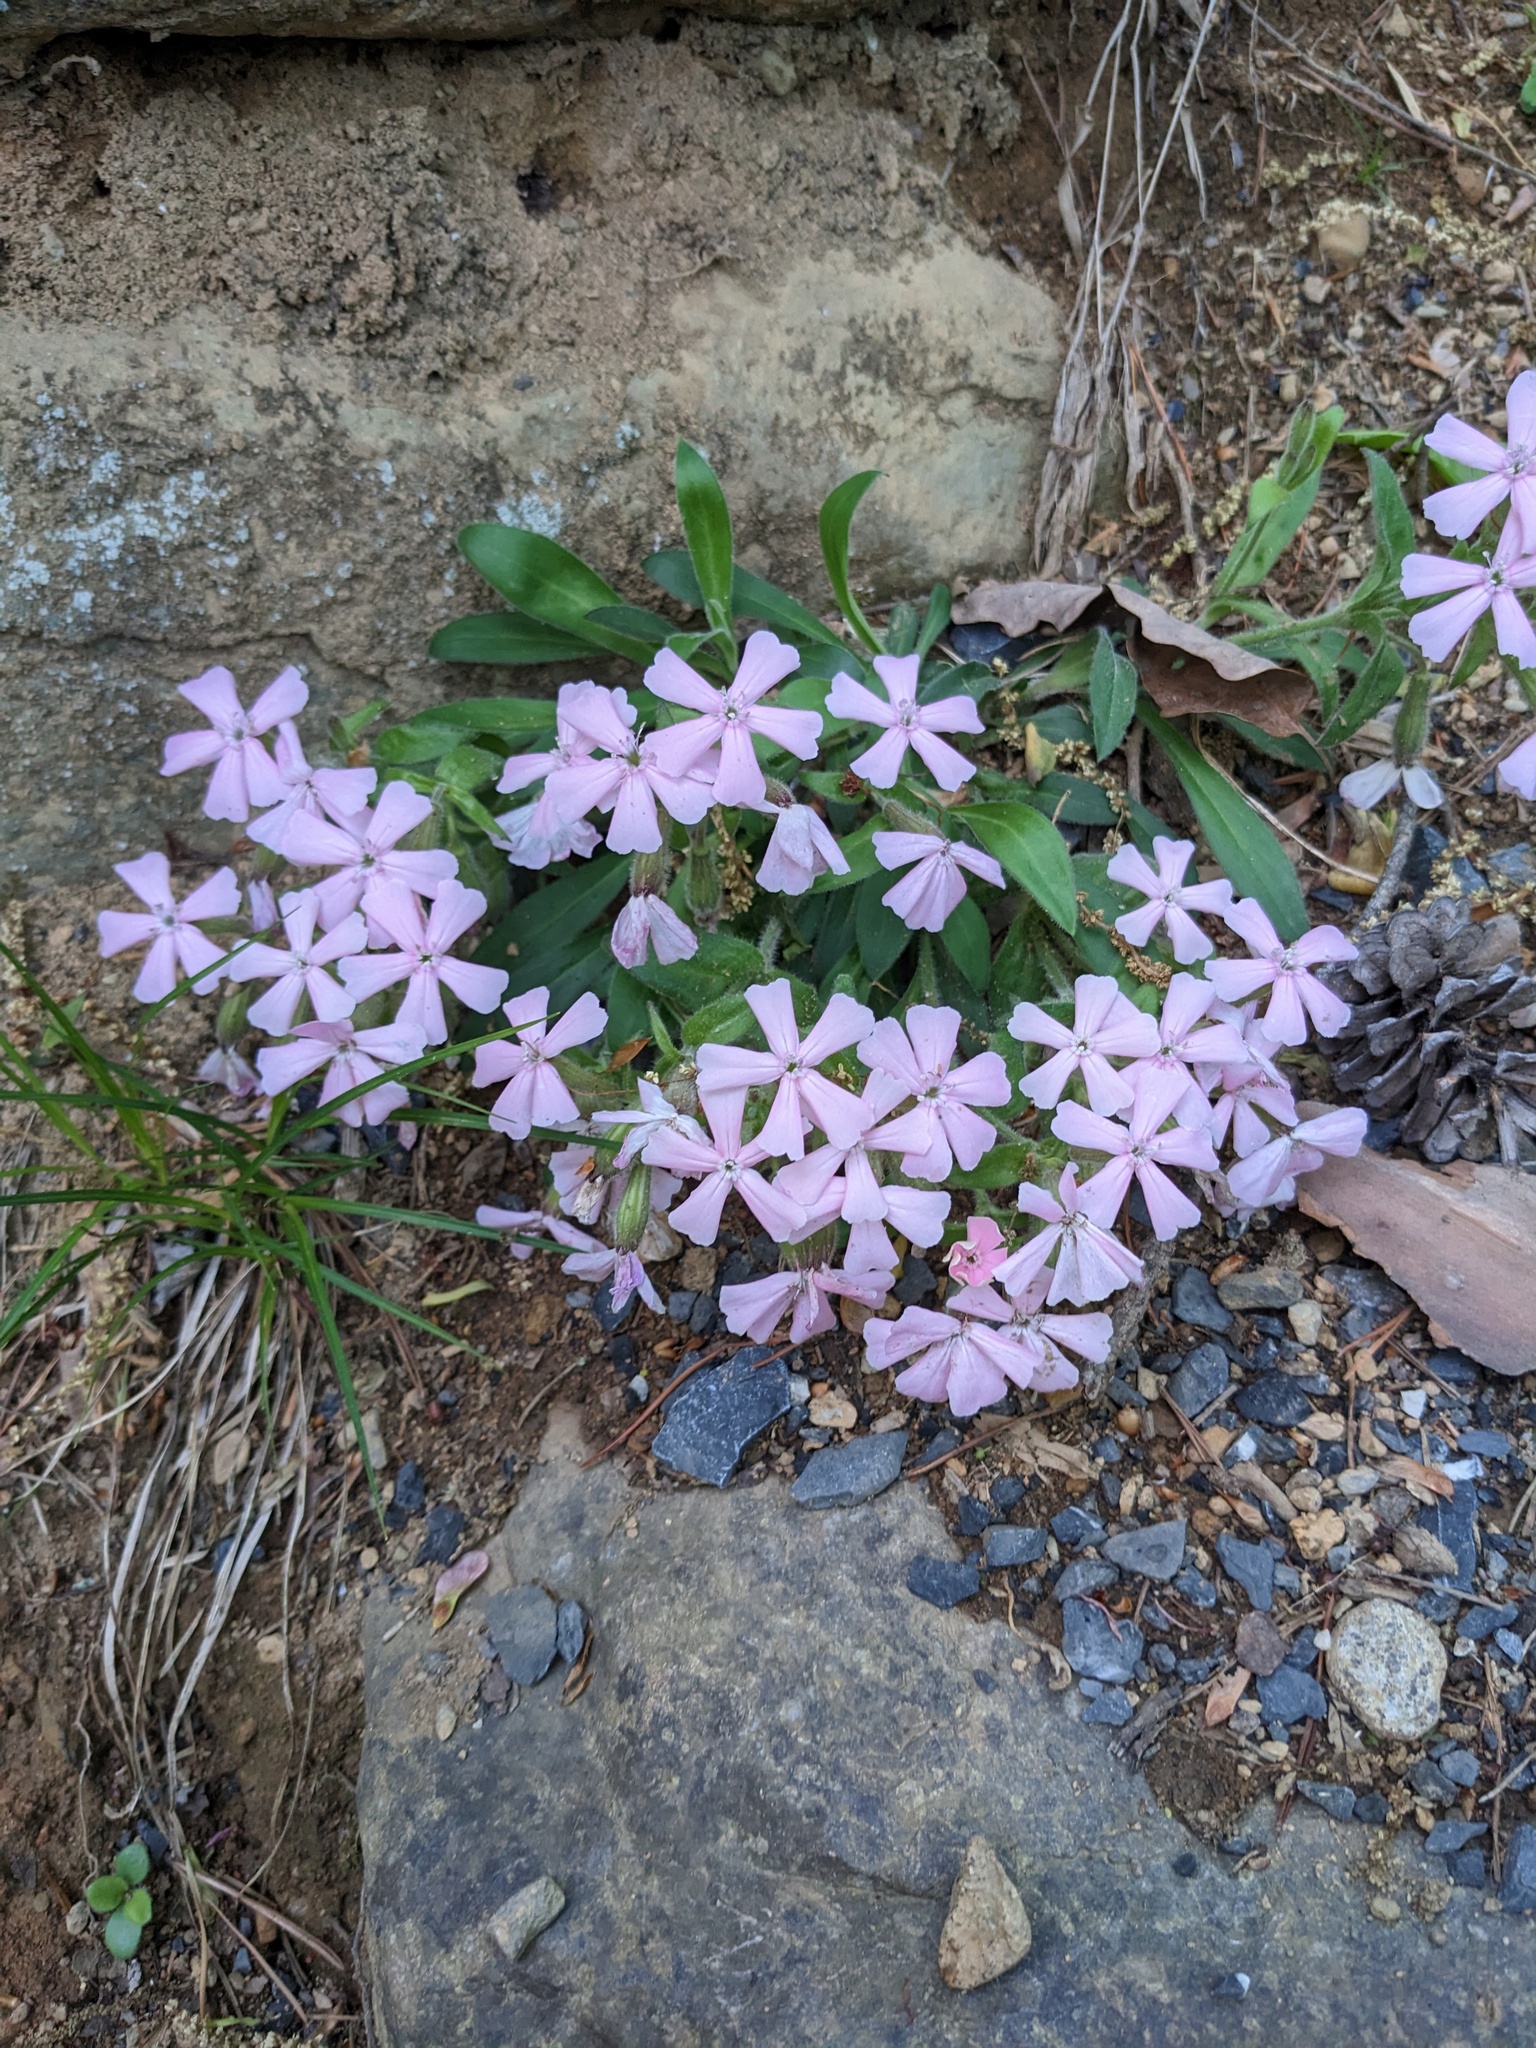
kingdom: Plantae
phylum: Tracheophyta
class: Magnoliopsida
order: Caryophyllales
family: Caryophyllaceae
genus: Silene
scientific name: Silene caroliniana
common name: Sticky catchfly
